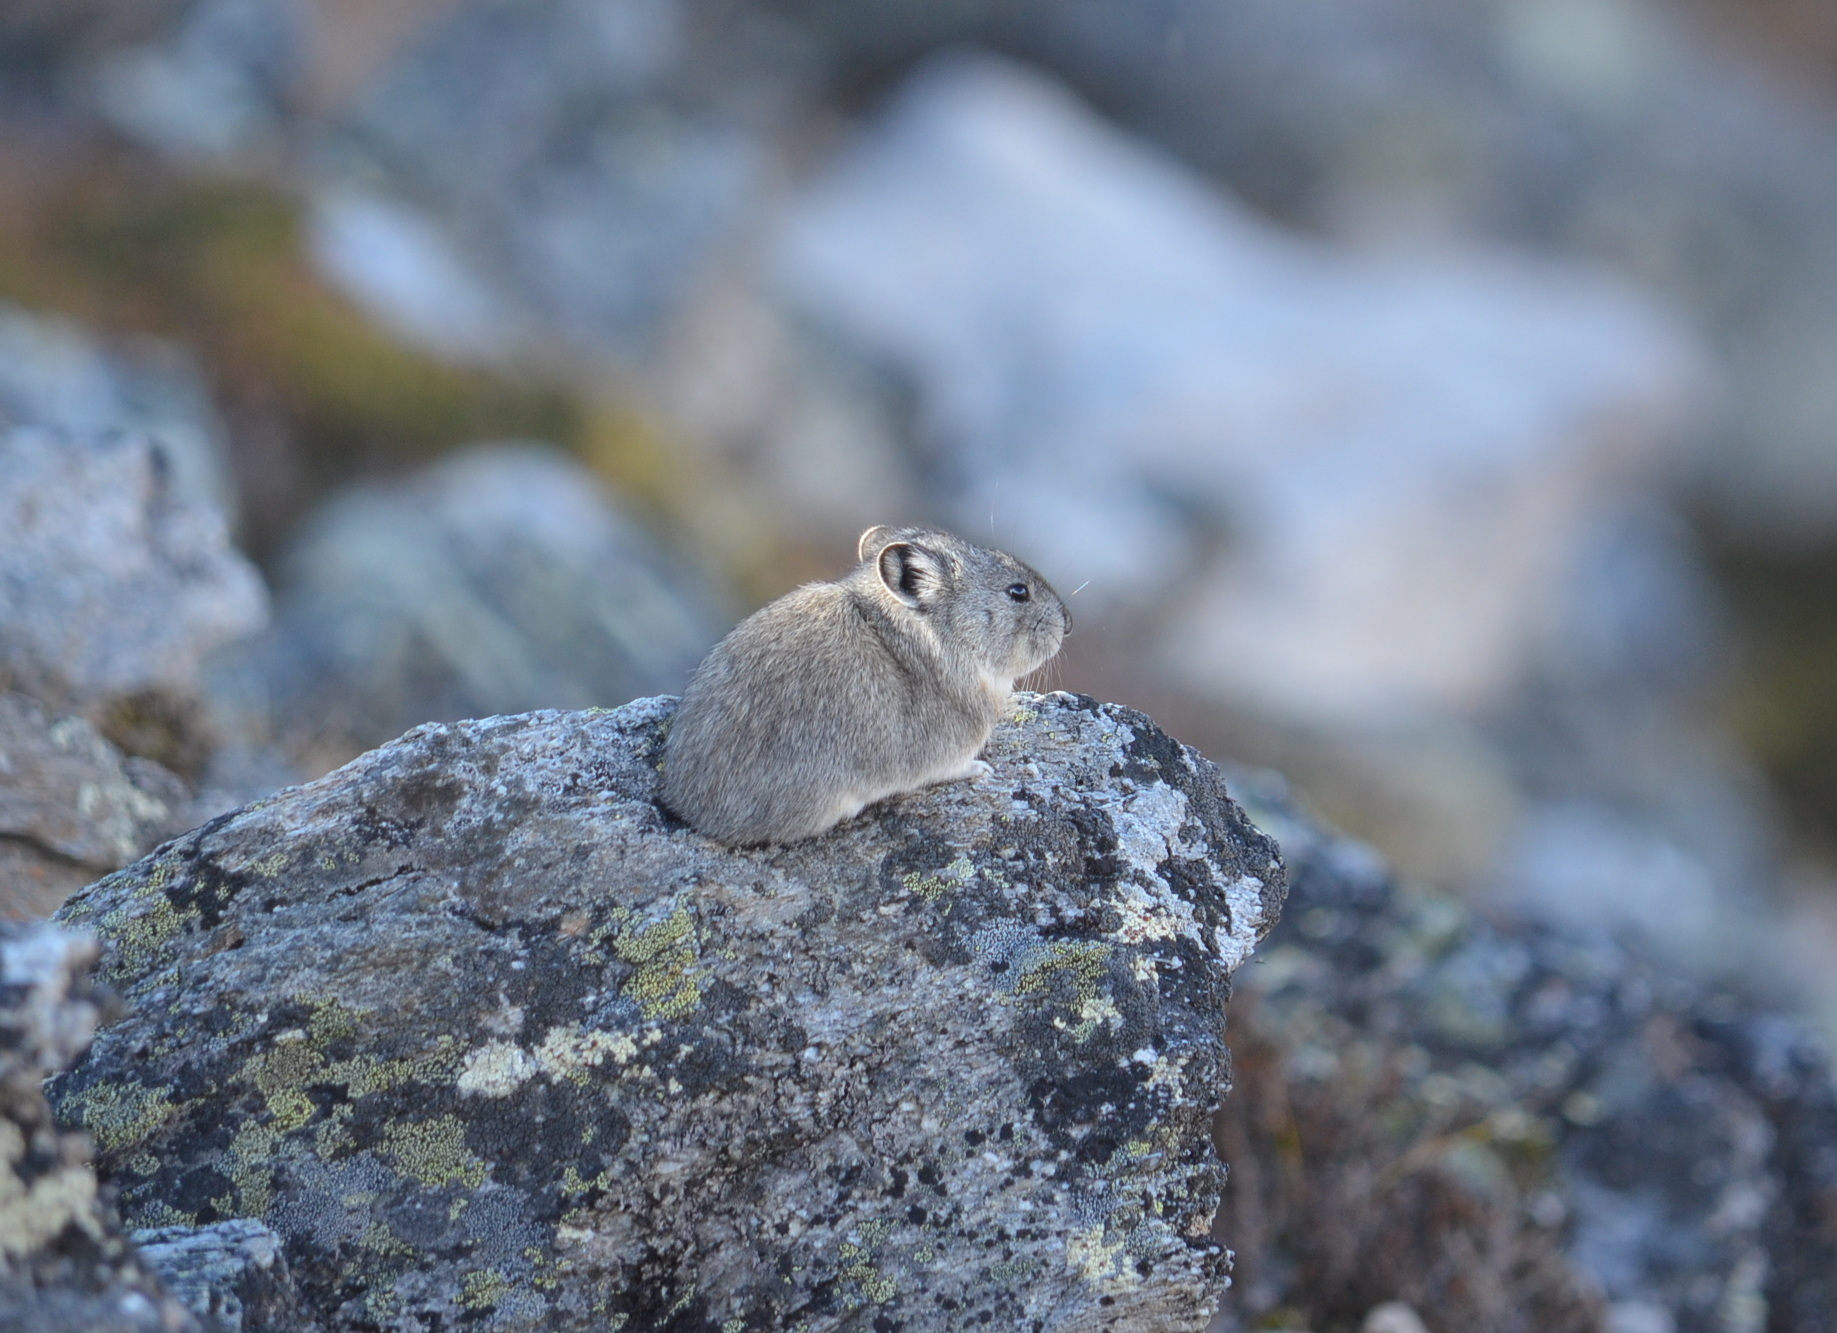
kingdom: Animalia
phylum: Chordata
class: Mammalia
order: Lagomorpha
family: Ochotonidae
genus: Ochotona
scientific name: Ochotona collaris
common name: Collared pika
